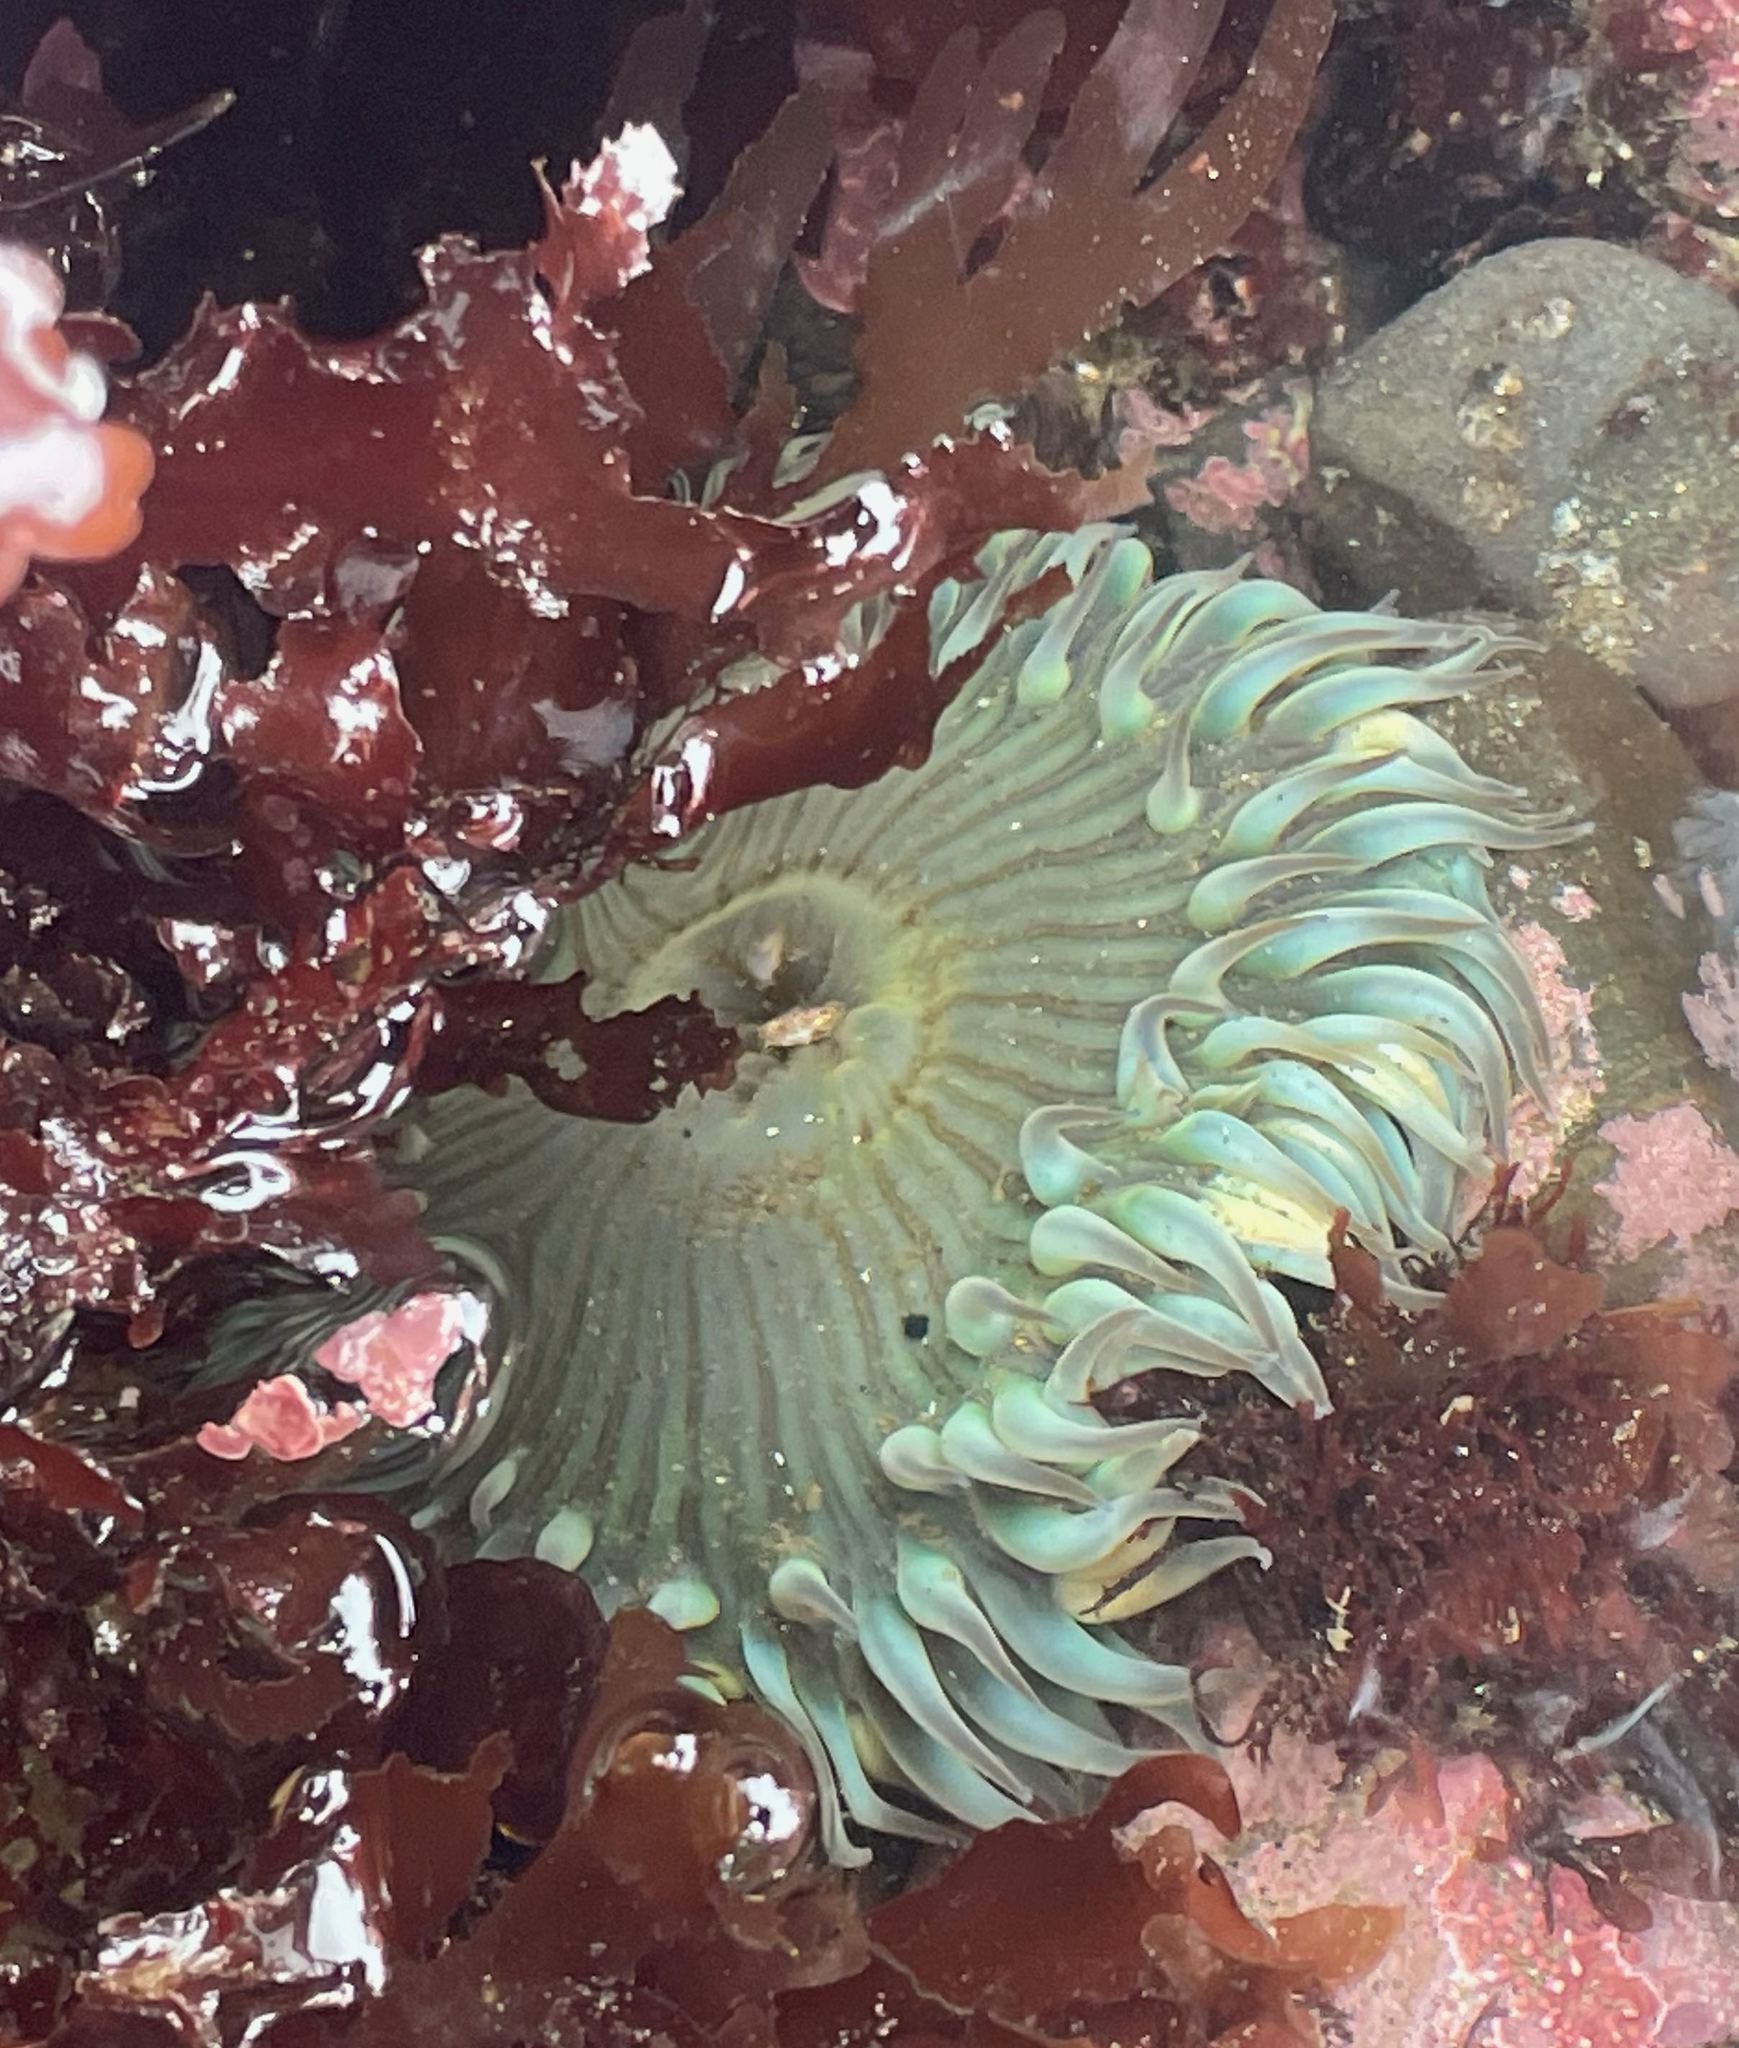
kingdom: Animalia
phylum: Cnidaria
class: Anthozoa
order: Actiniaria
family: Actiniidae
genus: Anthopleura
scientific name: Anthopleura sola
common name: Sun anemone
